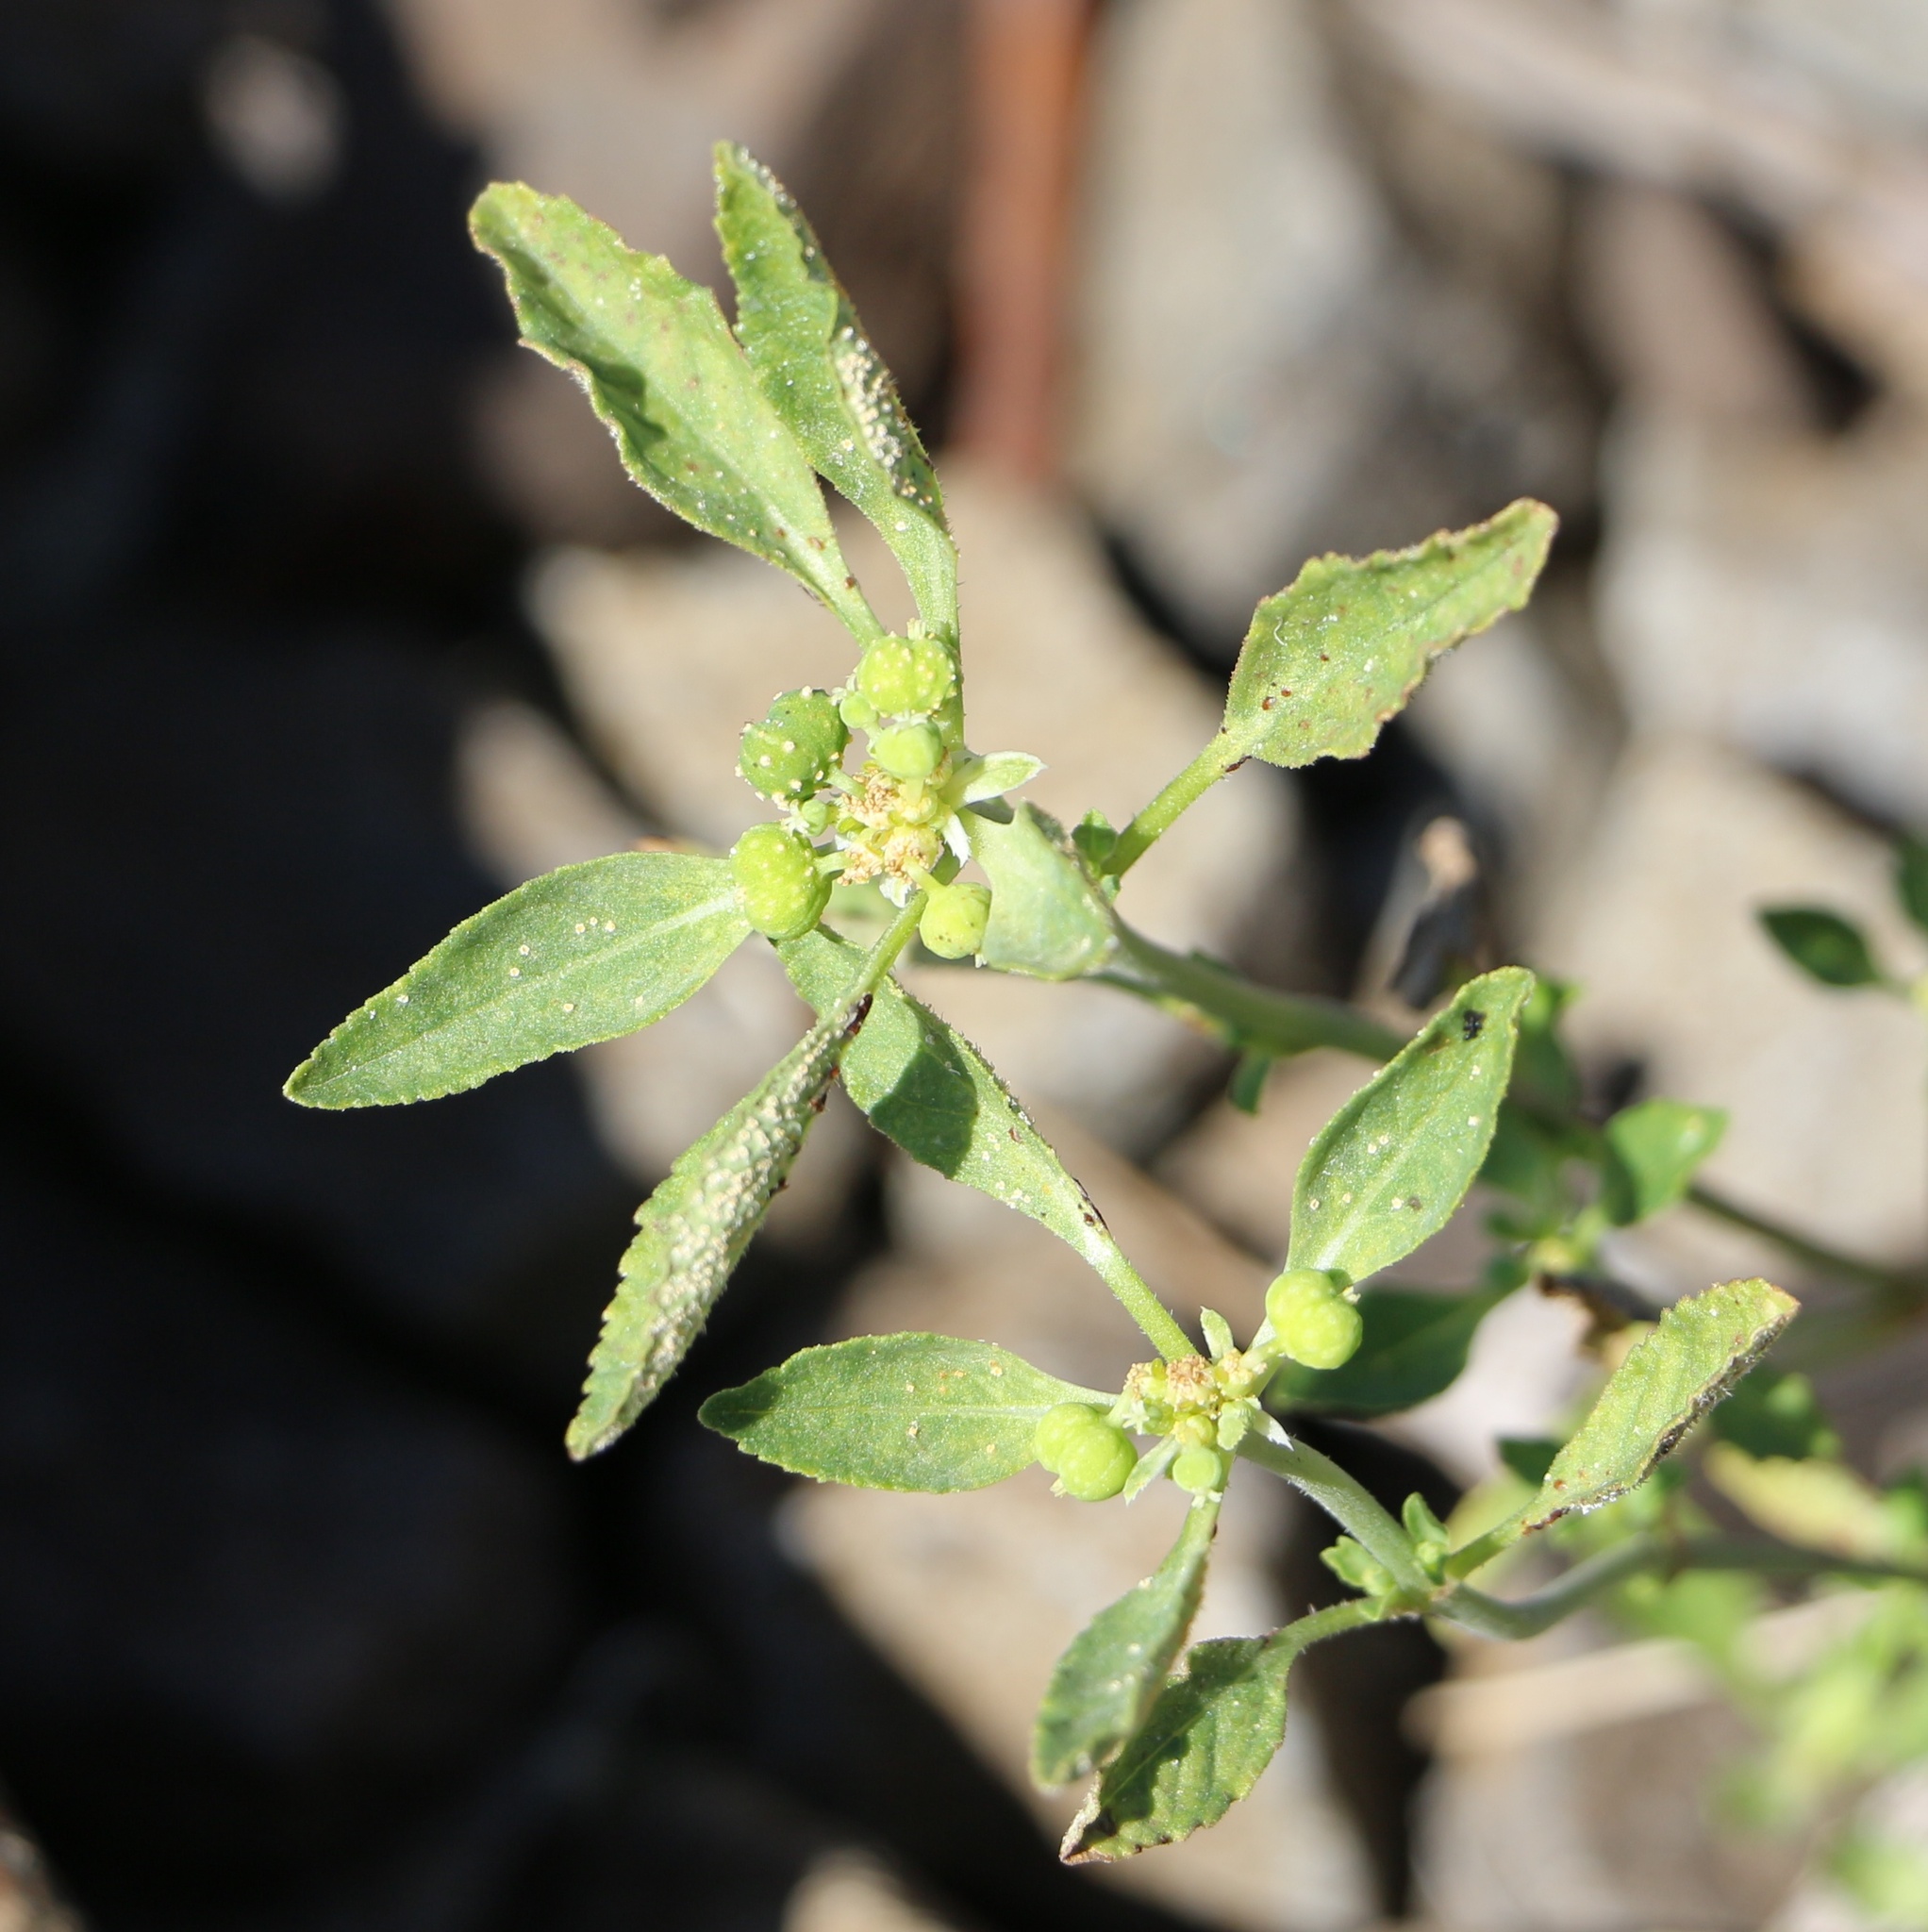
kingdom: Plantae
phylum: Tracheophyta
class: Magnoliopsida
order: Malpighiales
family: Euphorbiaceae
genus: Euphorbia
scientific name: Euphorbia davidii
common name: David's spurge
